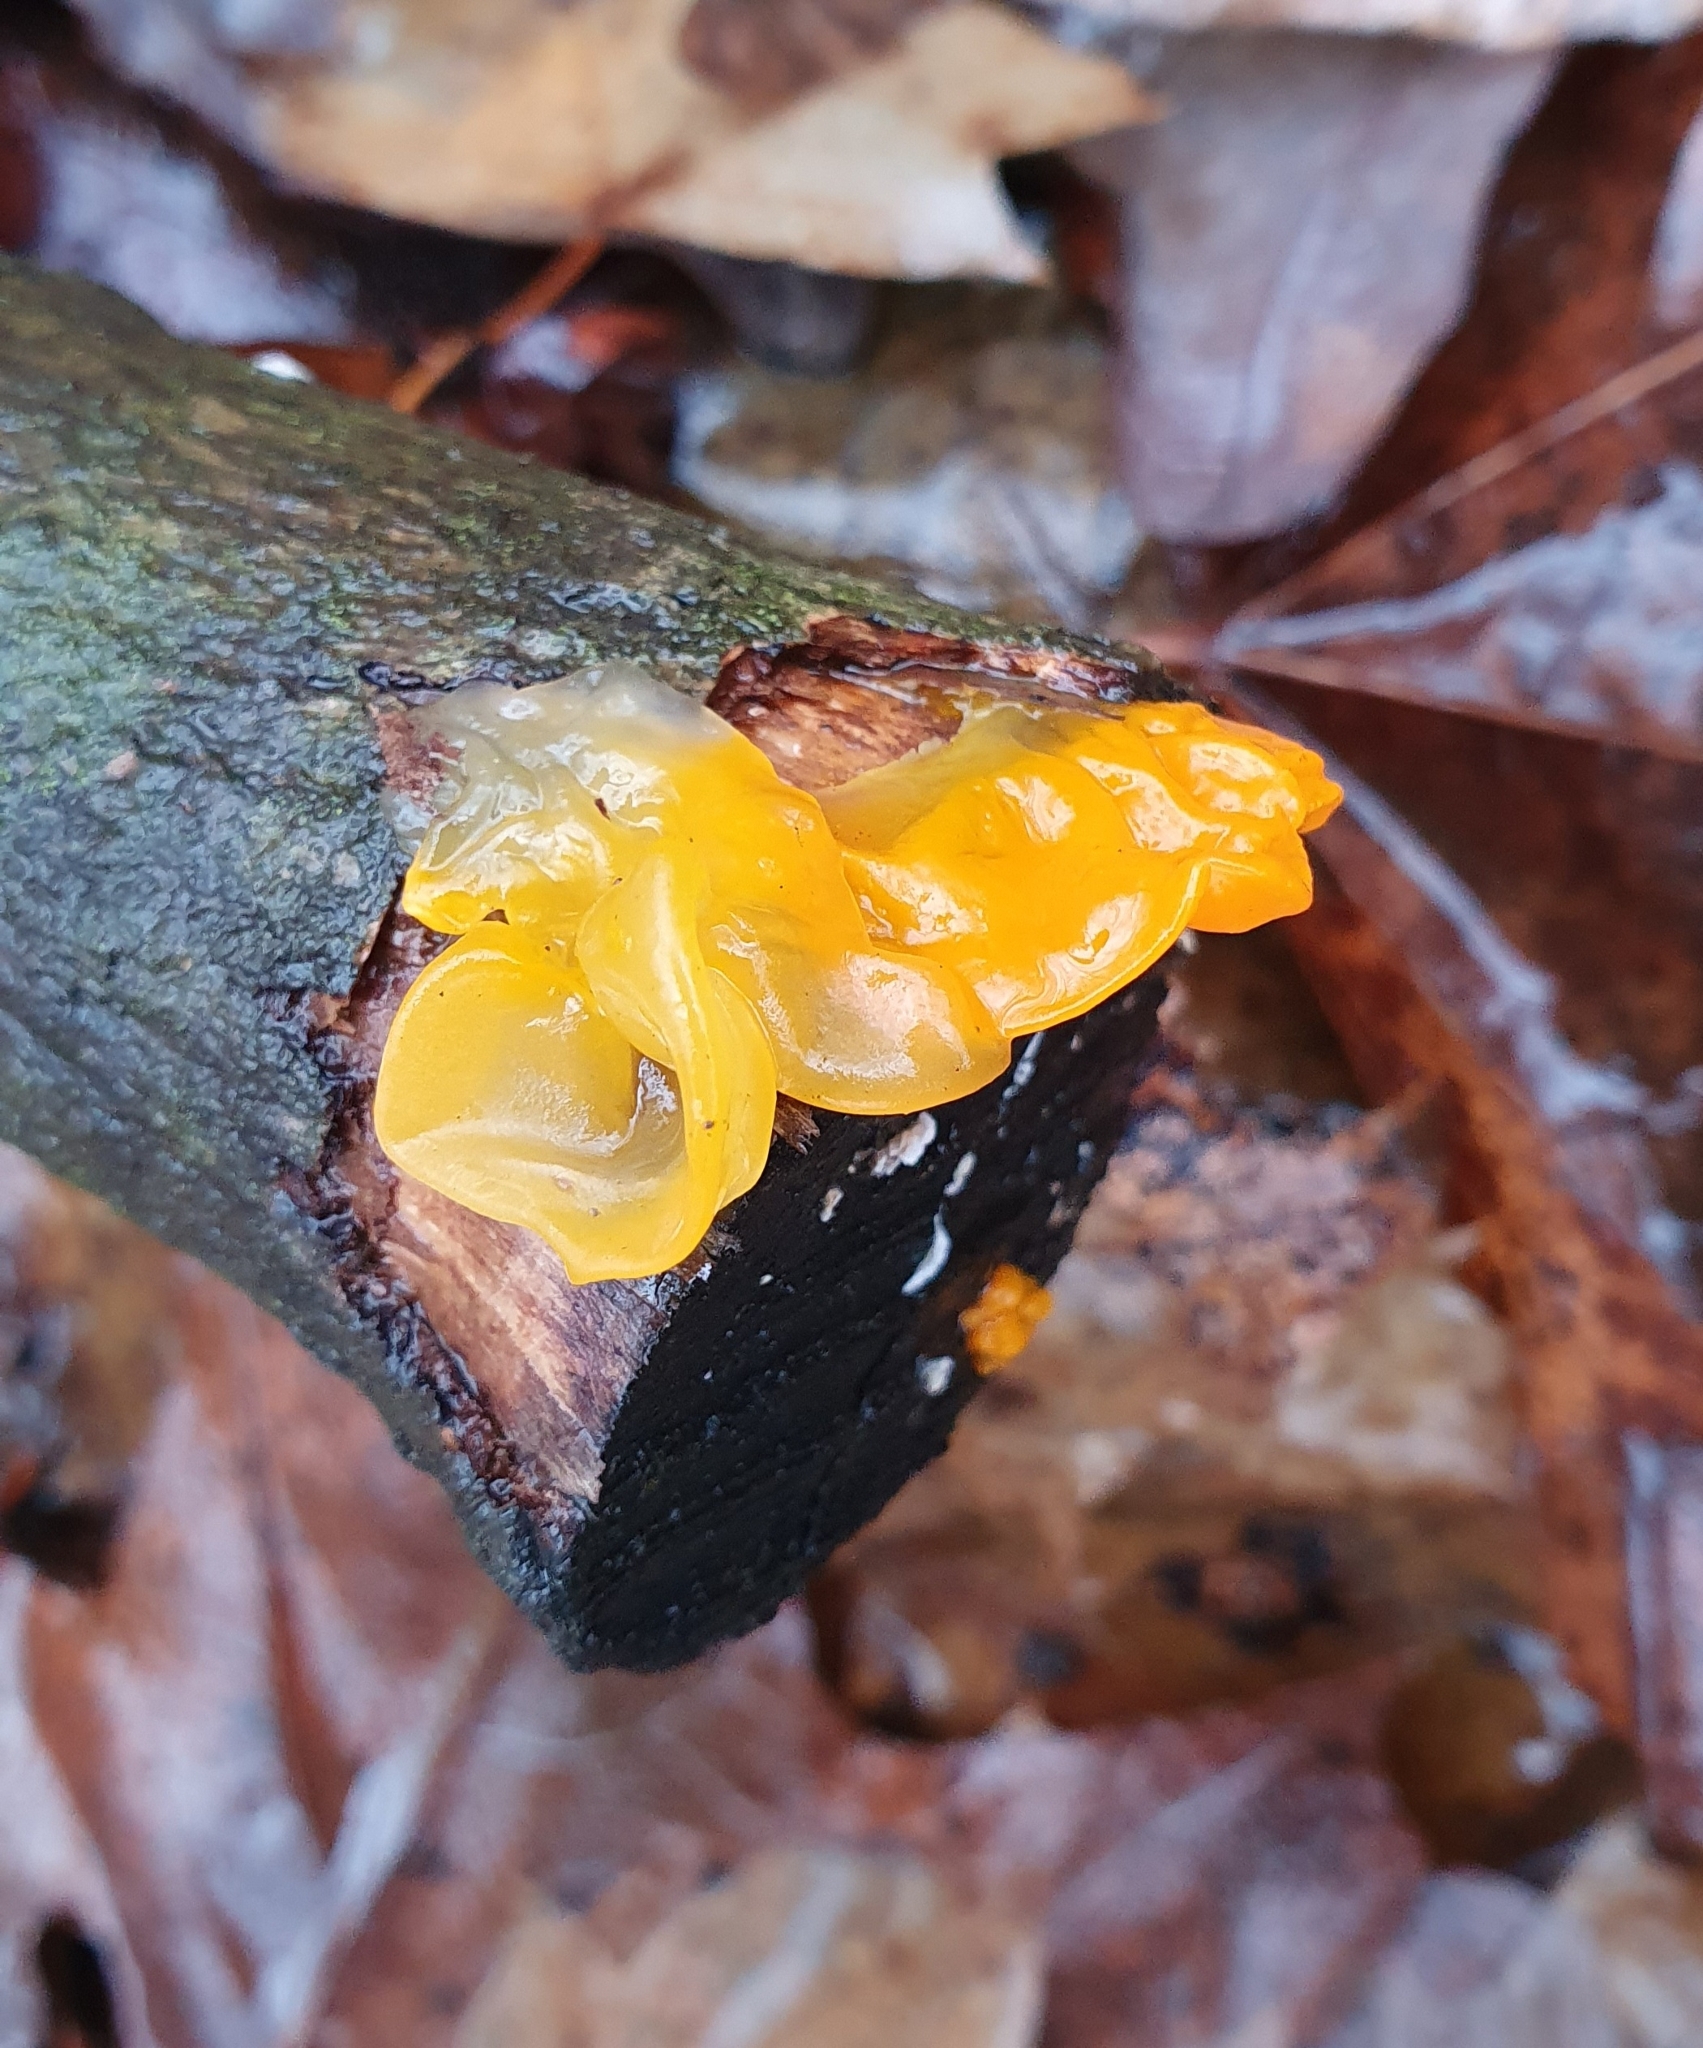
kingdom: Fungi
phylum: Basidiomycota
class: Tremellomycetes
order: Tremellales
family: Tremellaceae
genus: Tremella
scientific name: Tremella mesenterica
